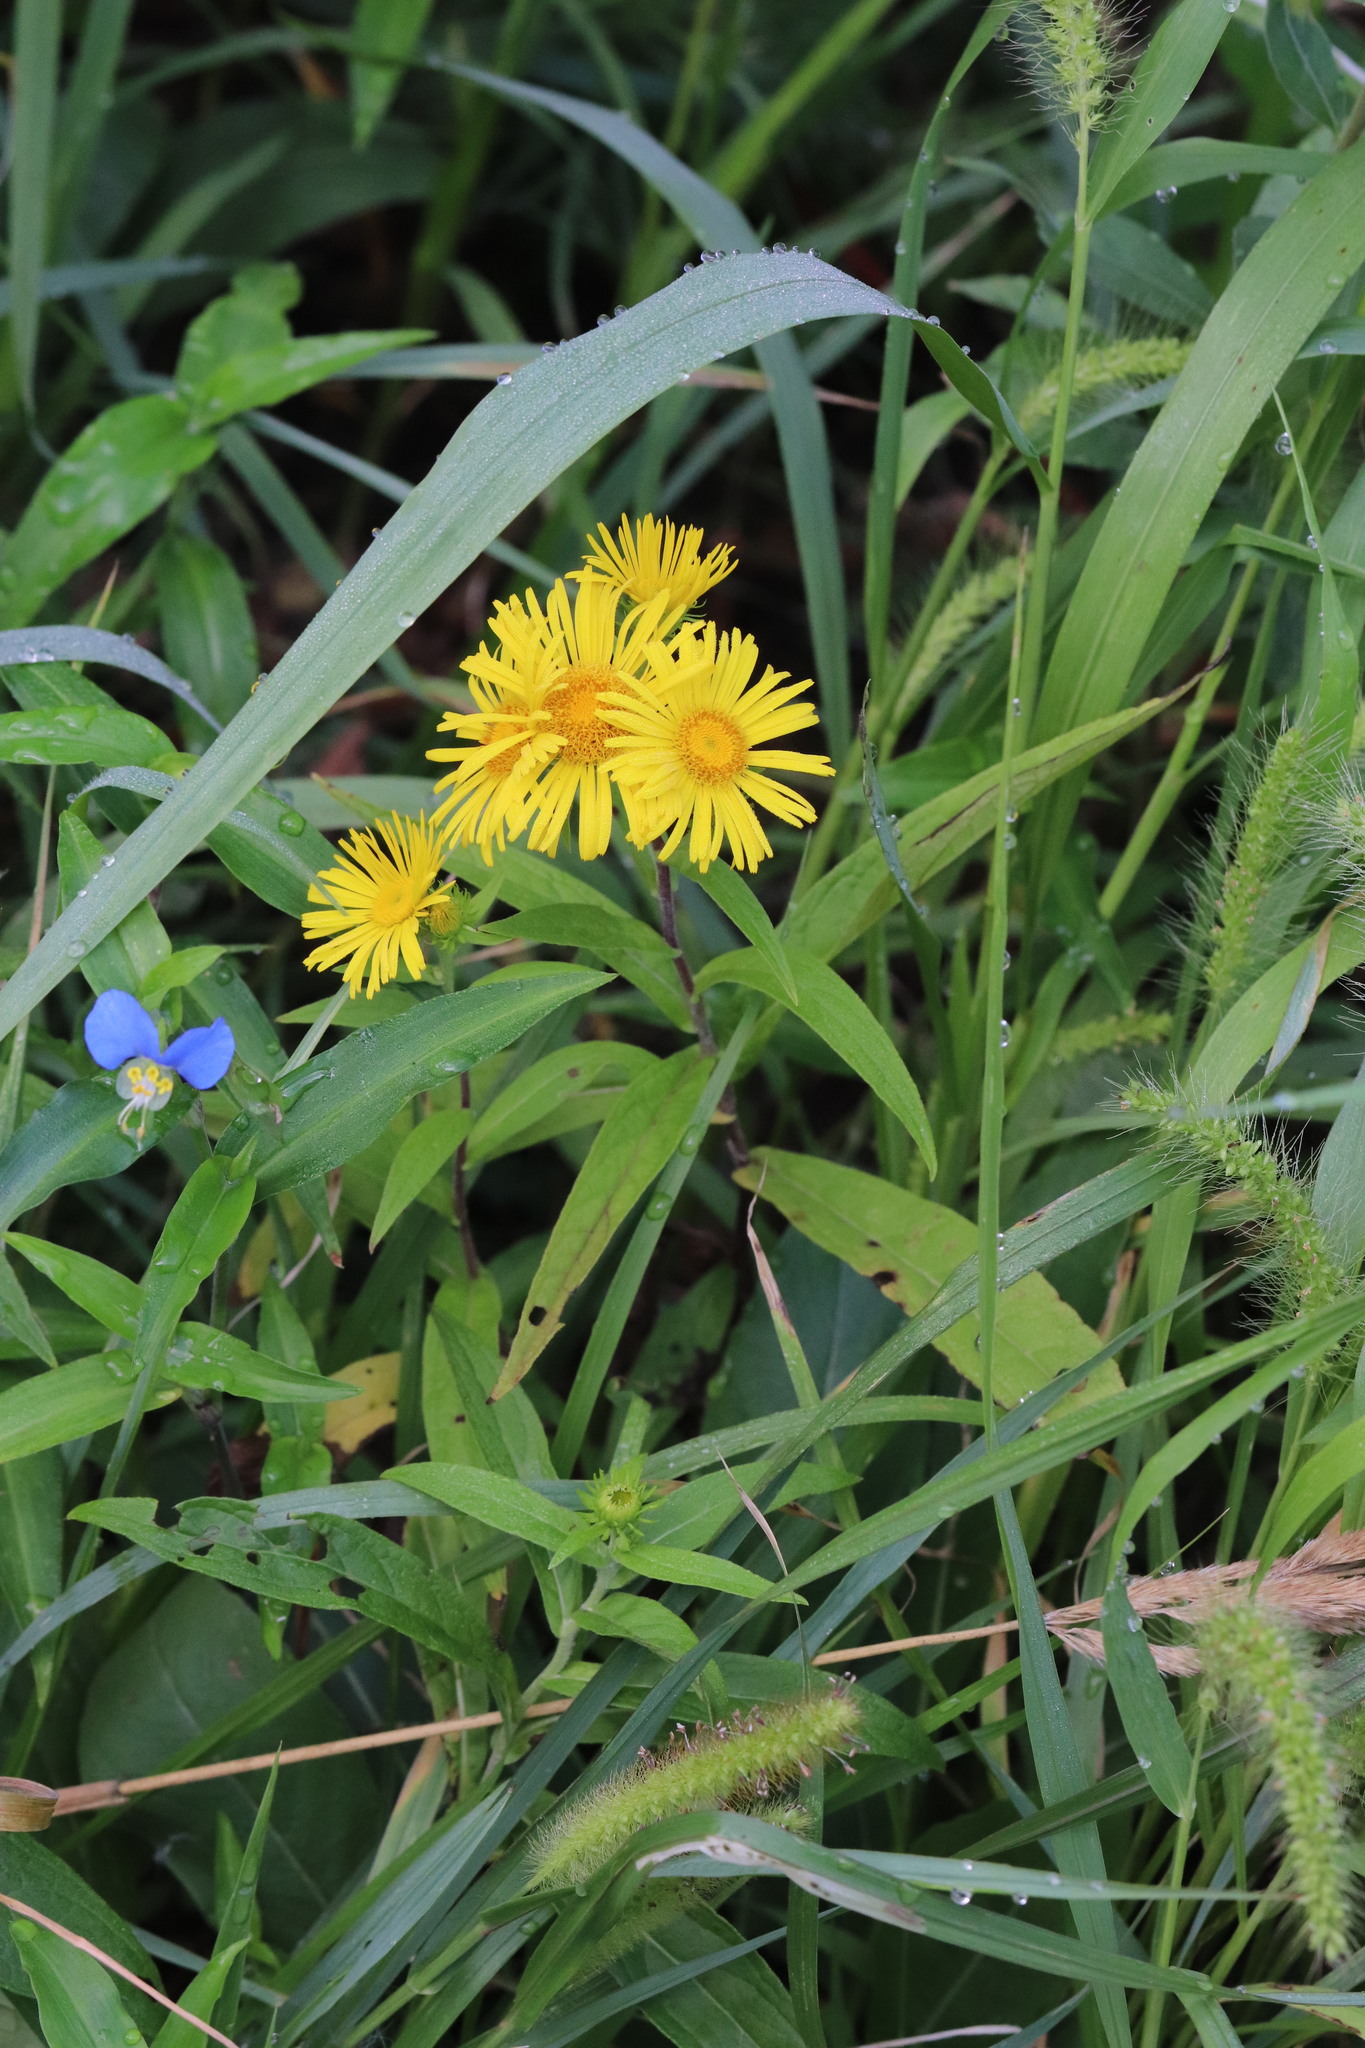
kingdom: Plantae
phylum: Tracheophyta
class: Magnoliopsida
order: Asterales
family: Asteraceae
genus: Inula
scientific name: Inula japonica
